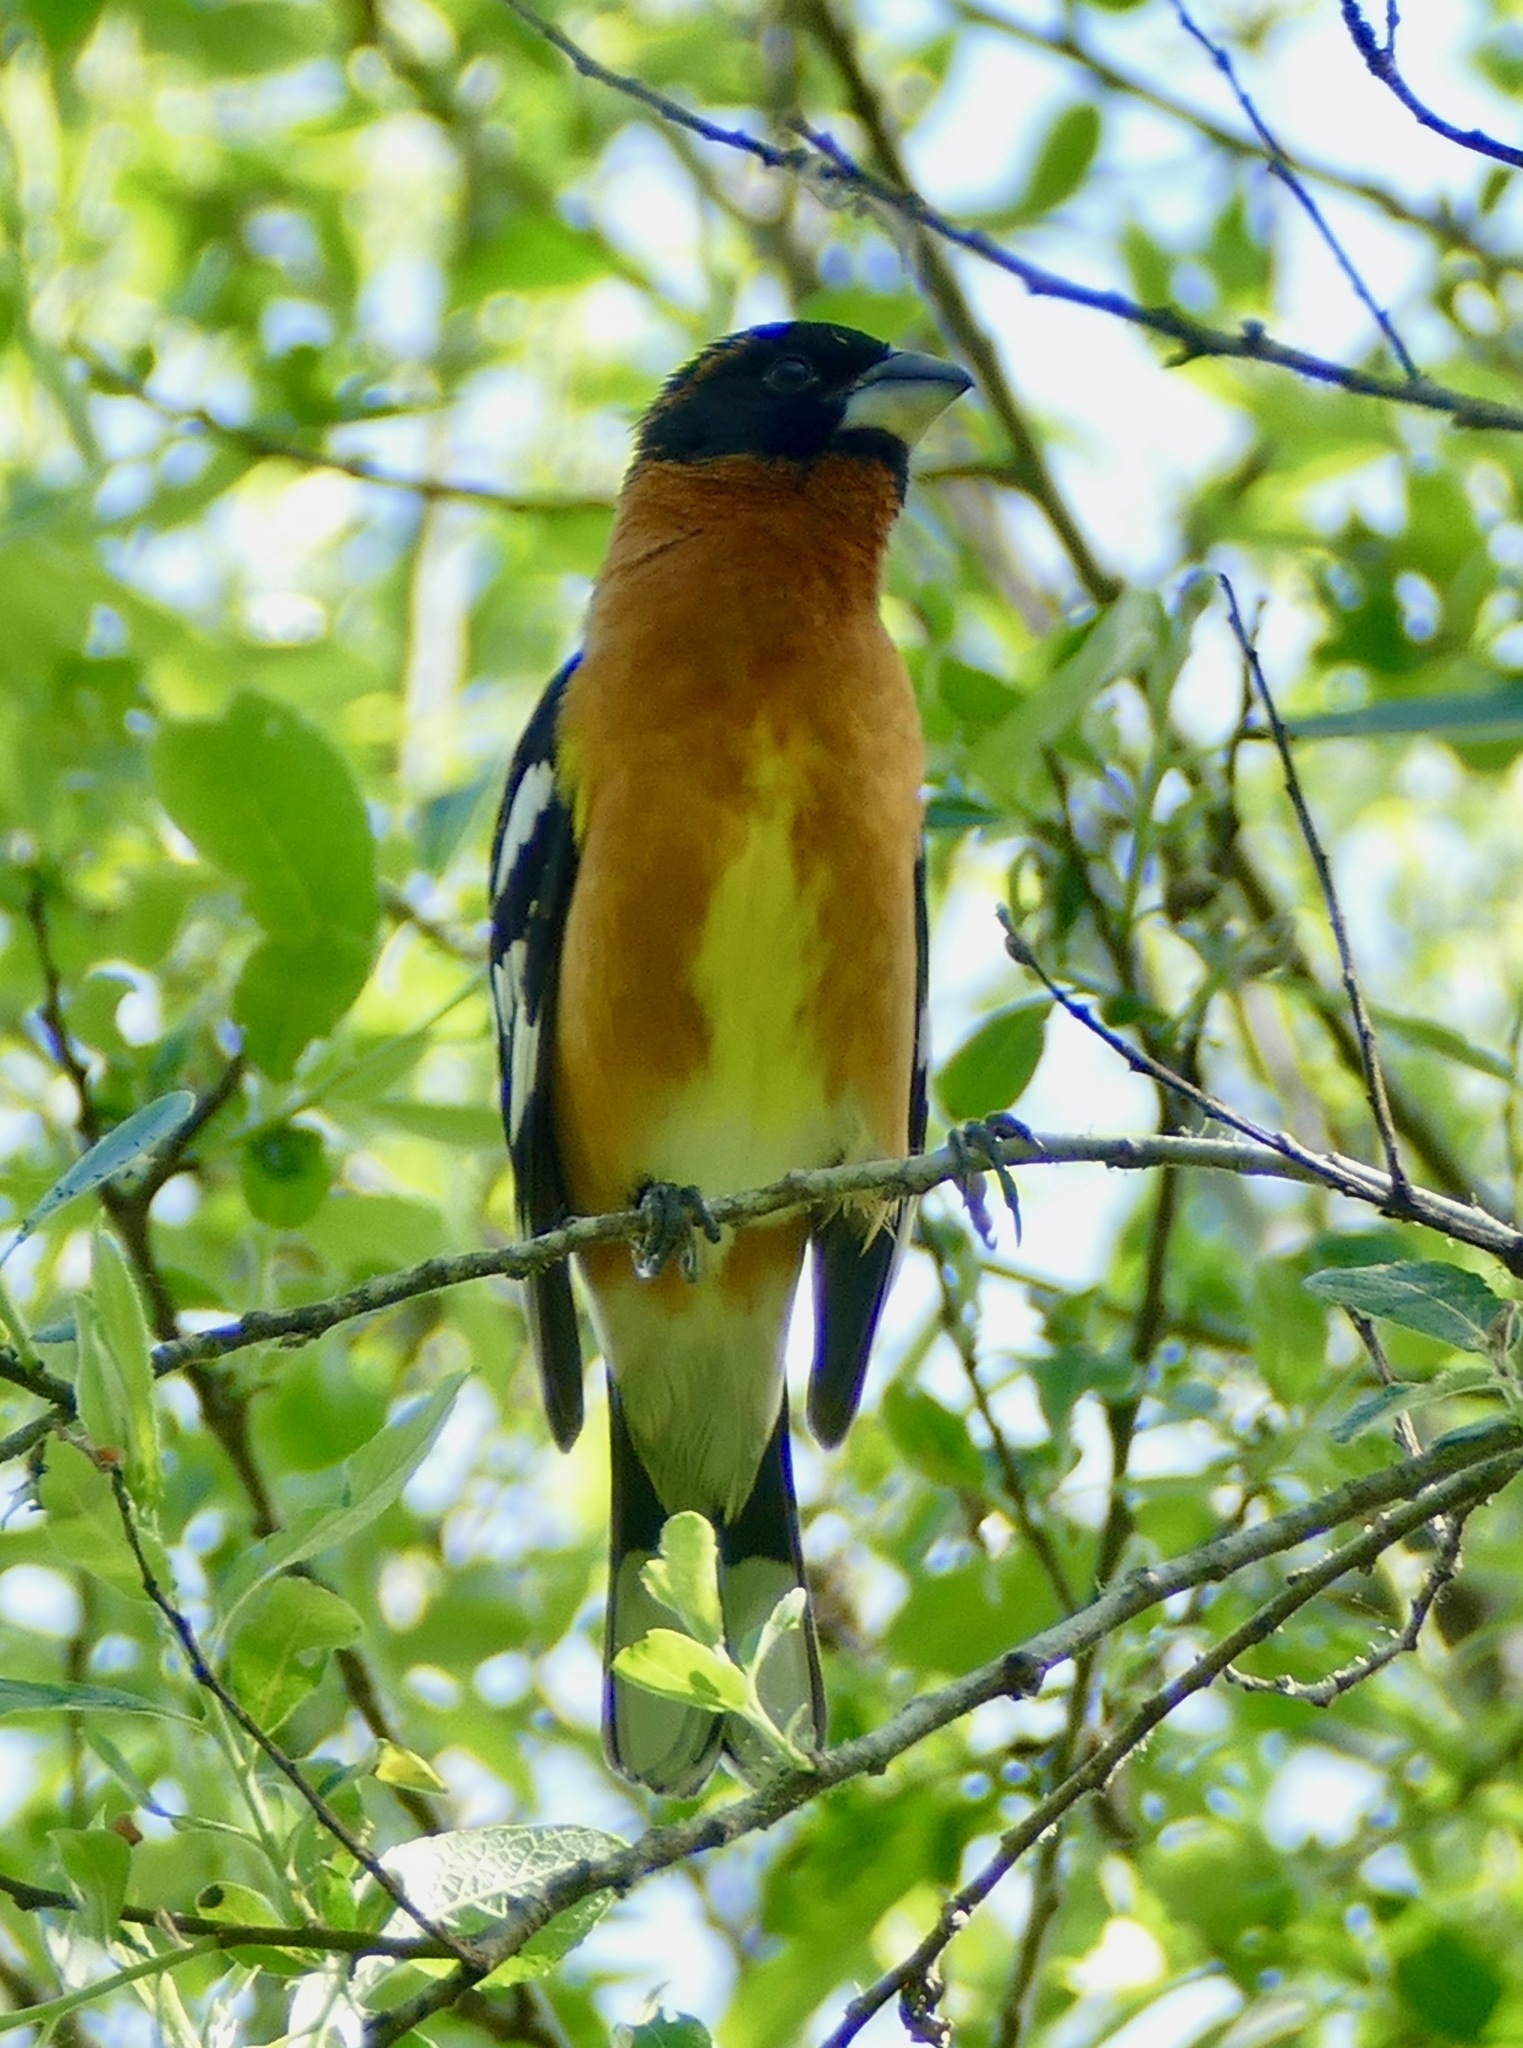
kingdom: Animalia
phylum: Chordata
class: Aves
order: Passeriformes
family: Cardinalidae
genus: Pheucticus
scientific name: Pheucticus melanocephalus
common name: Black-headed grosbeak
